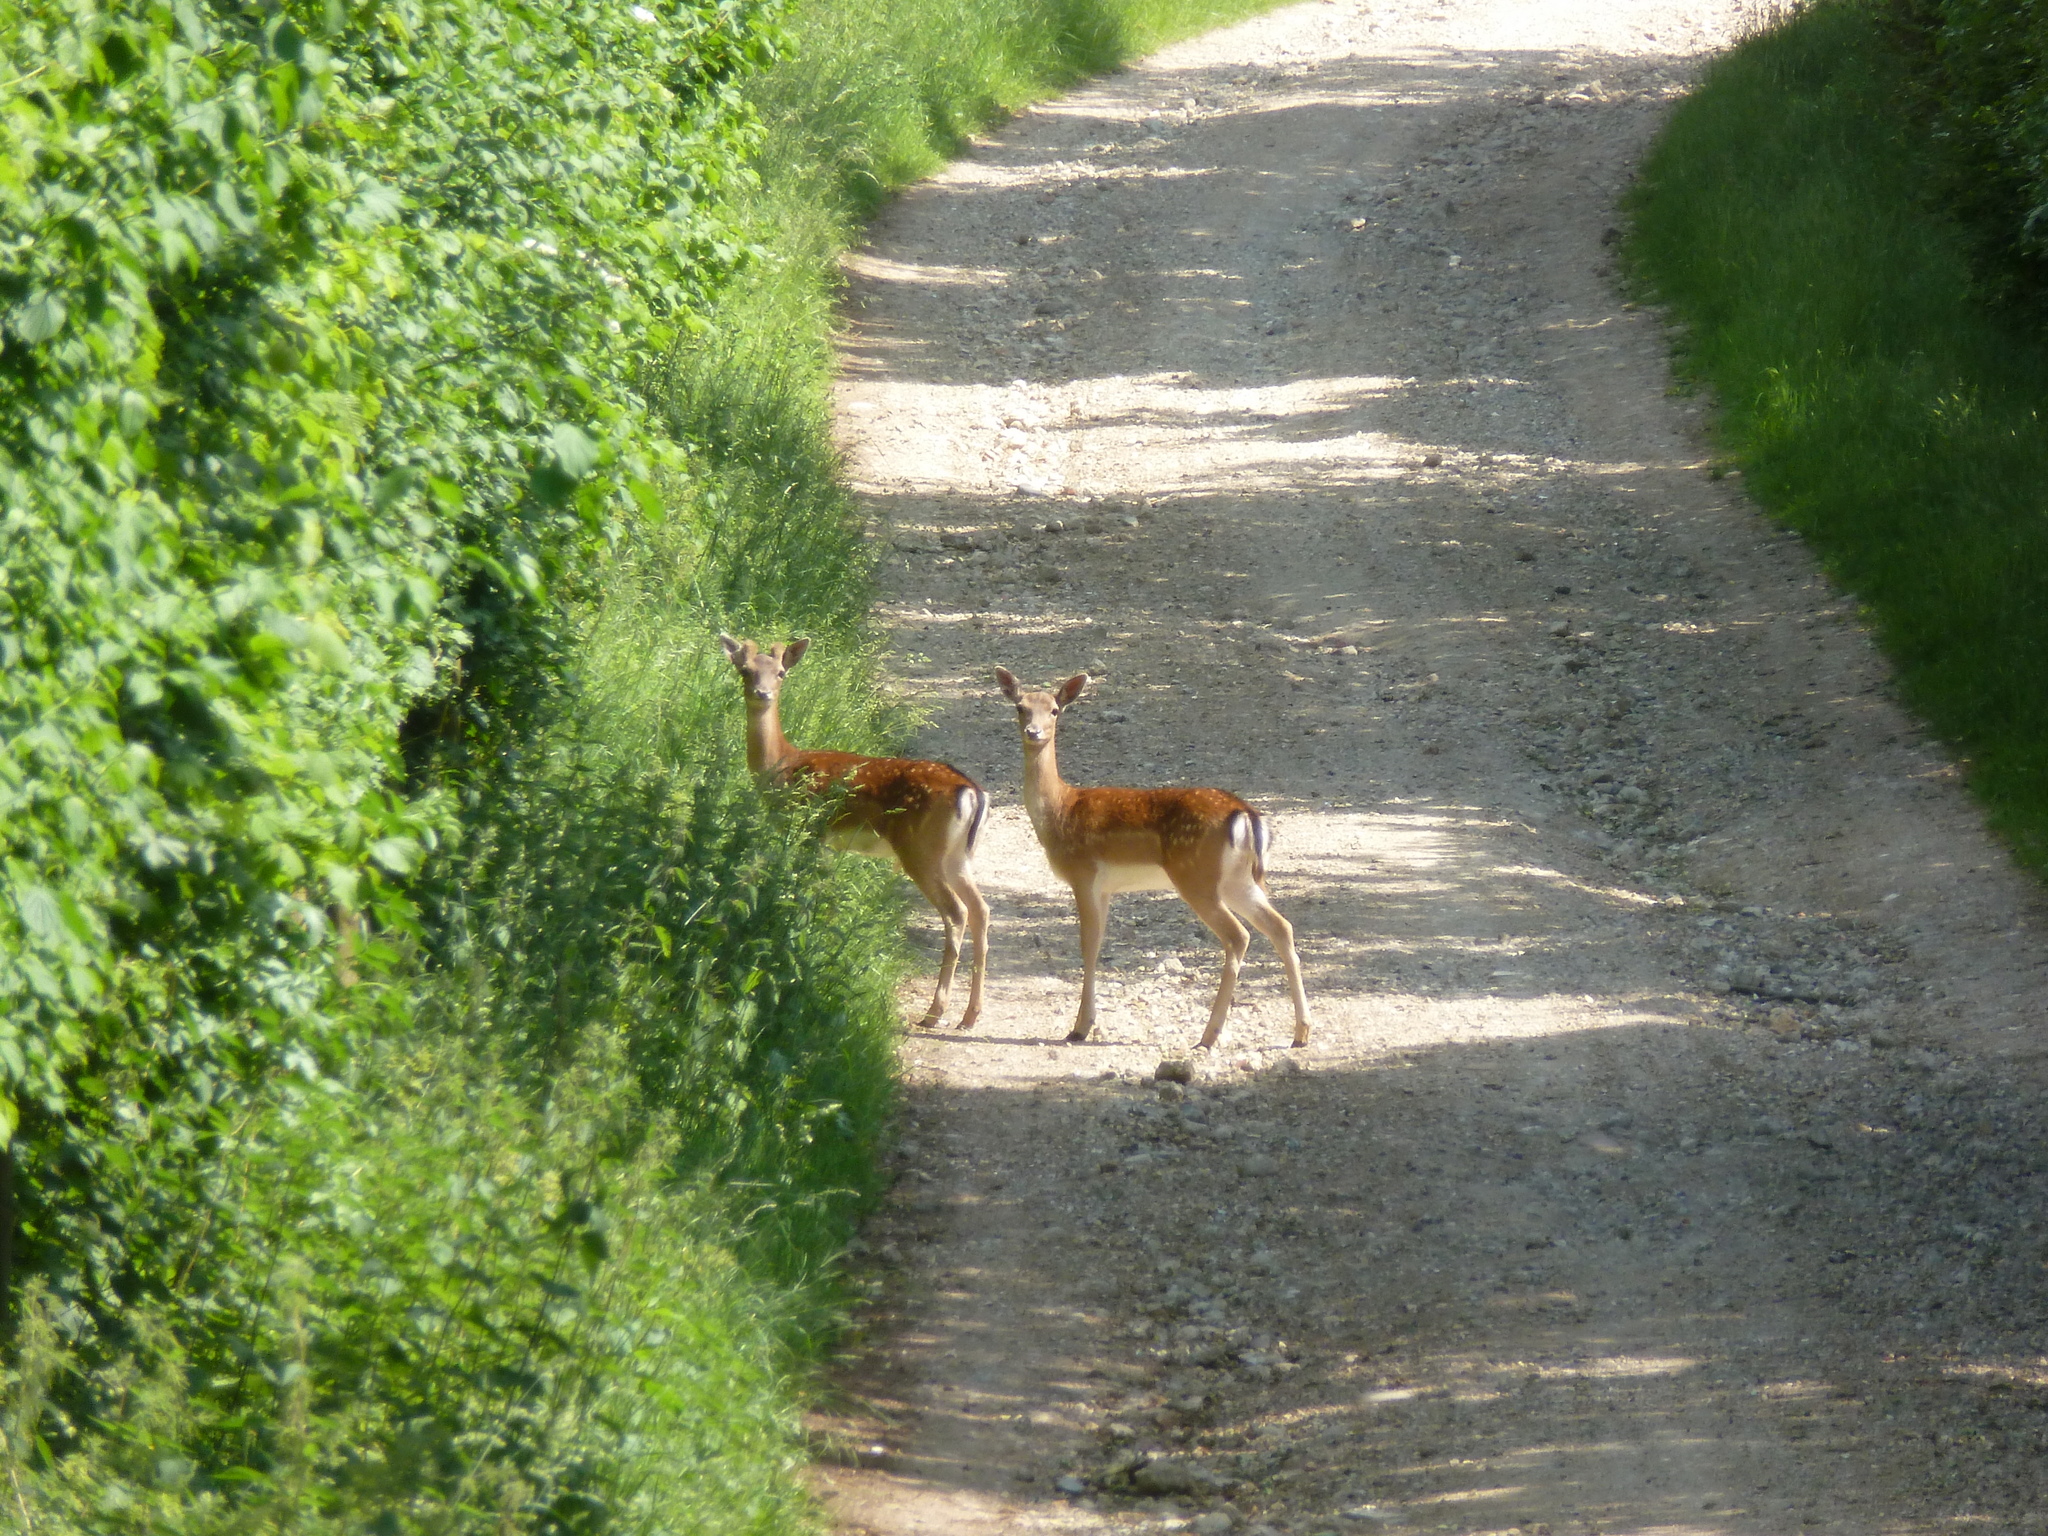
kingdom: Animalia
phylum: Chordata
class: Mammalia
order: Artiodactyla
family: Cervidae
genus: Dama
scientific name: Dama dama
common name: Fallow deer
